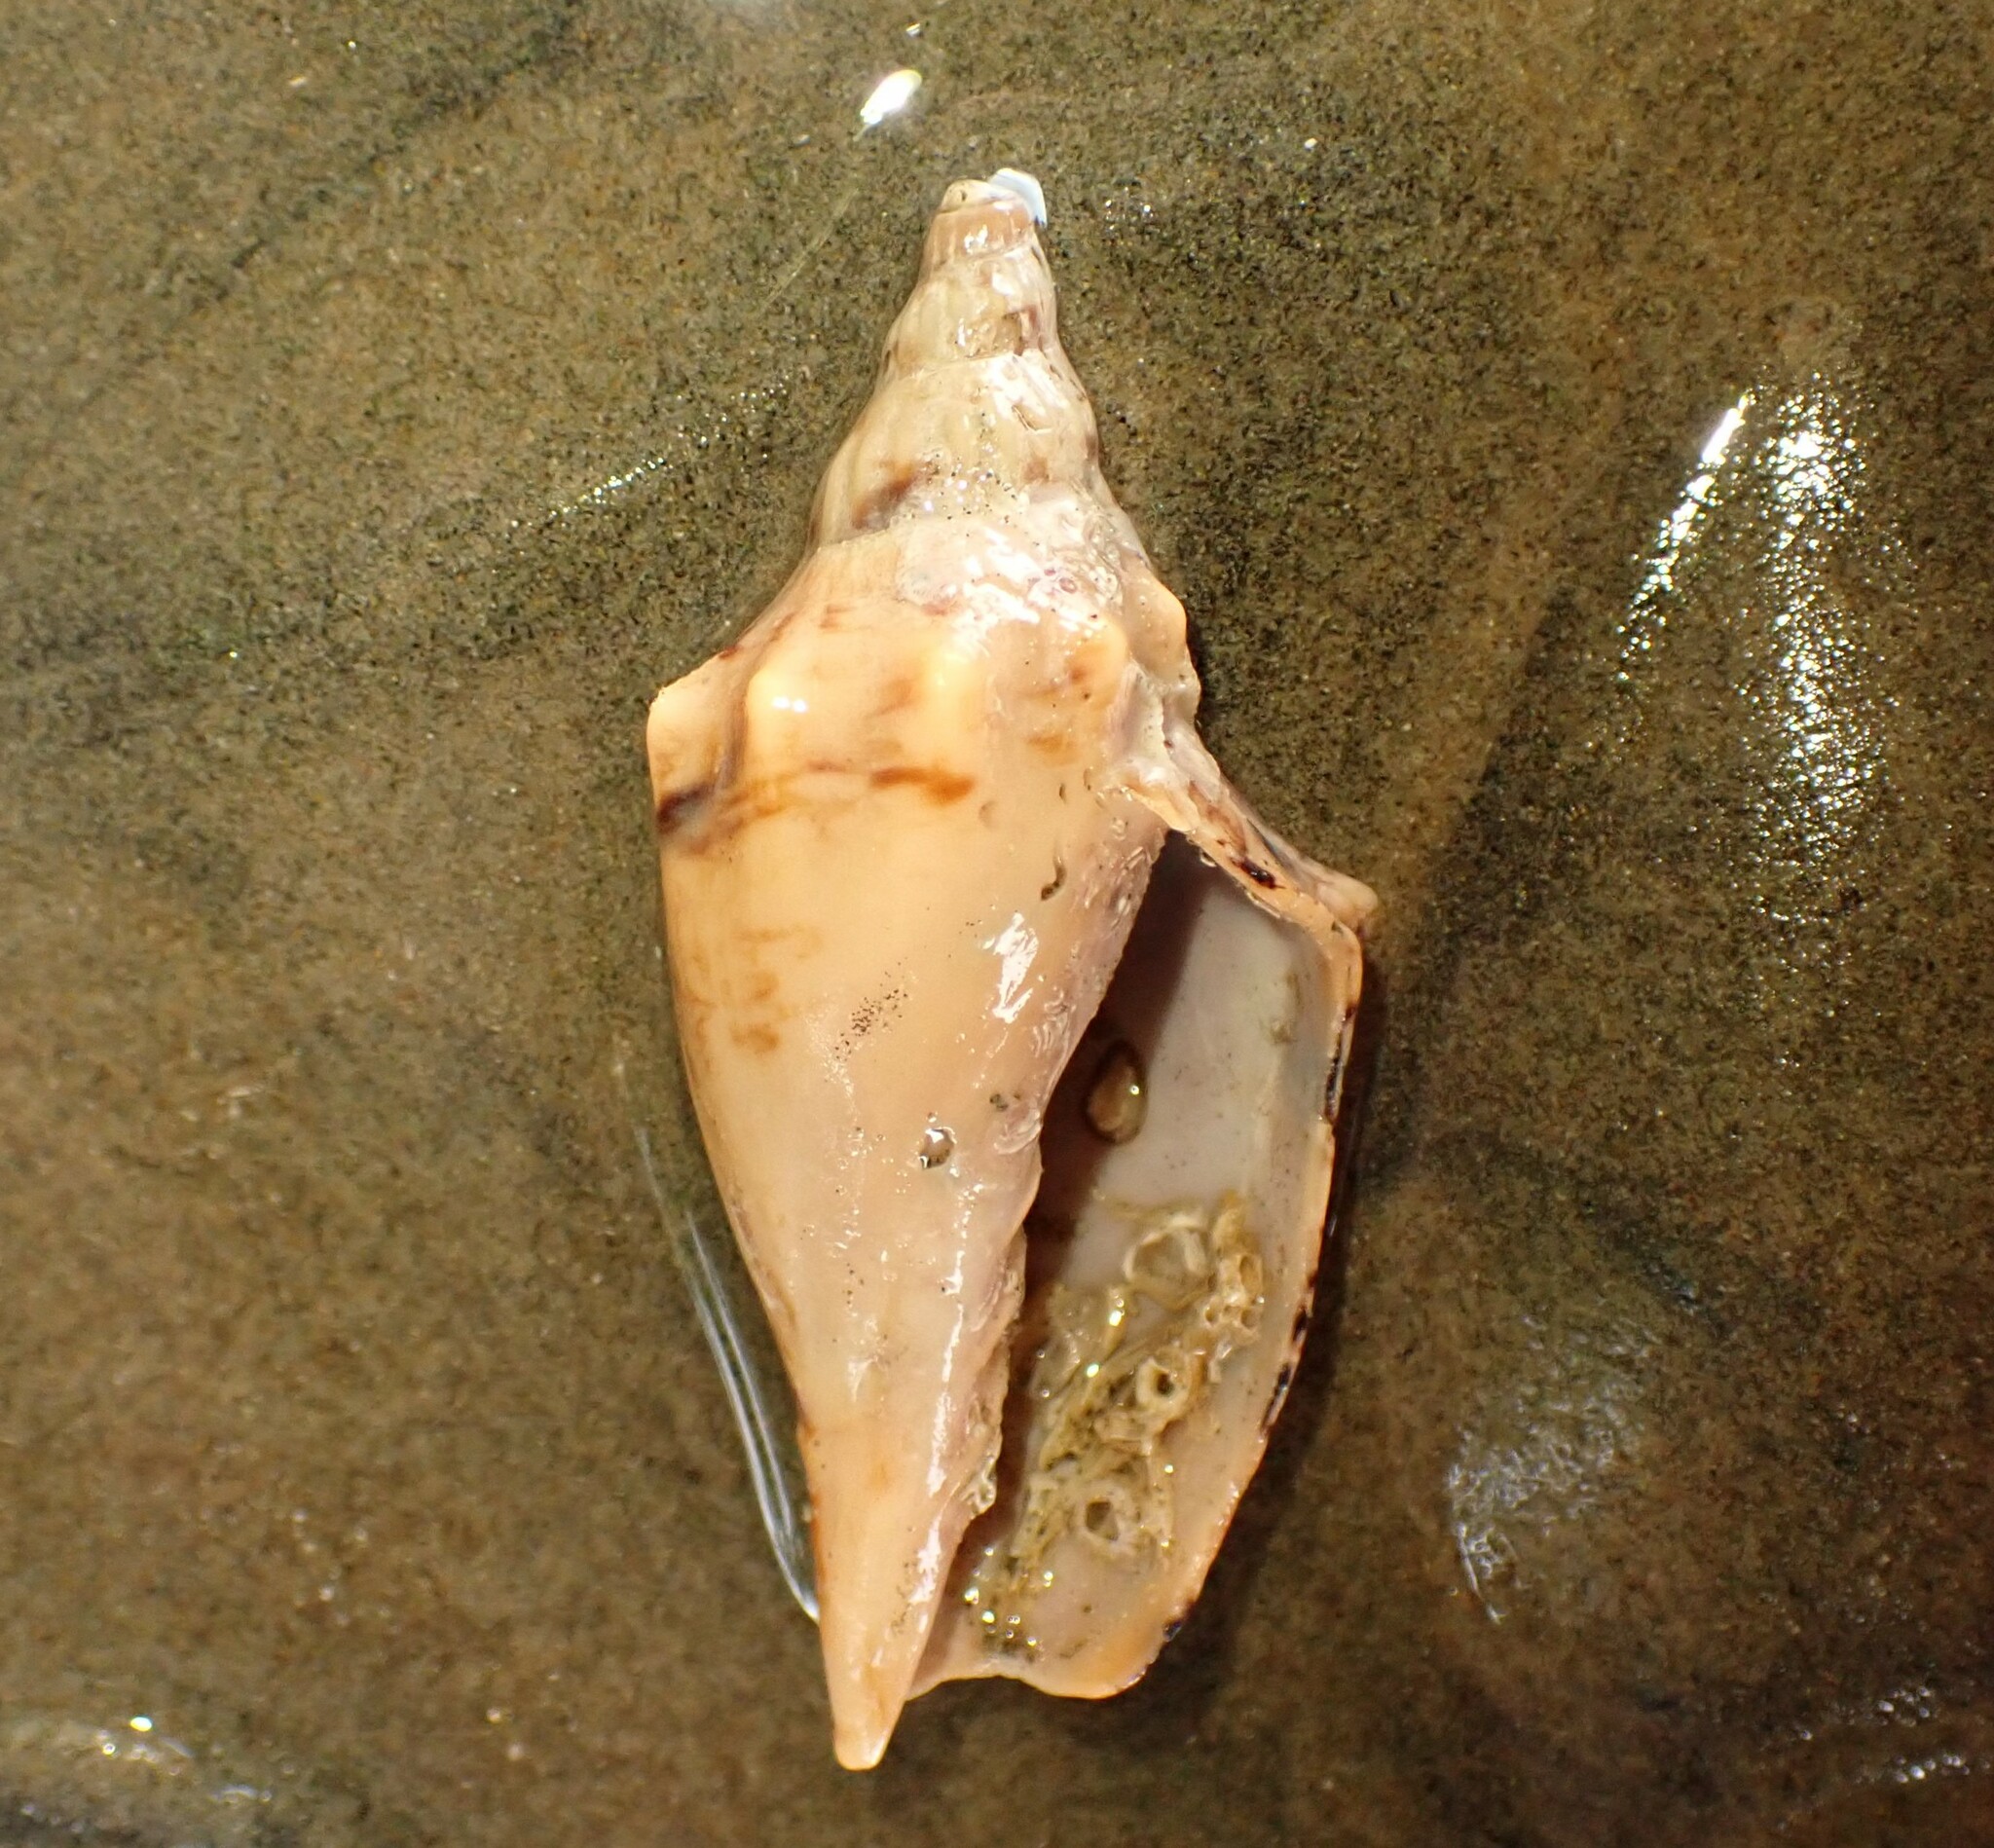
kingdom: Animalia
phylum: Mollusca
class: Gastropoda
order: Neogastropoda
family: Volutidae
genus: Alcithoe
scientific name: Alcithoe arabica
